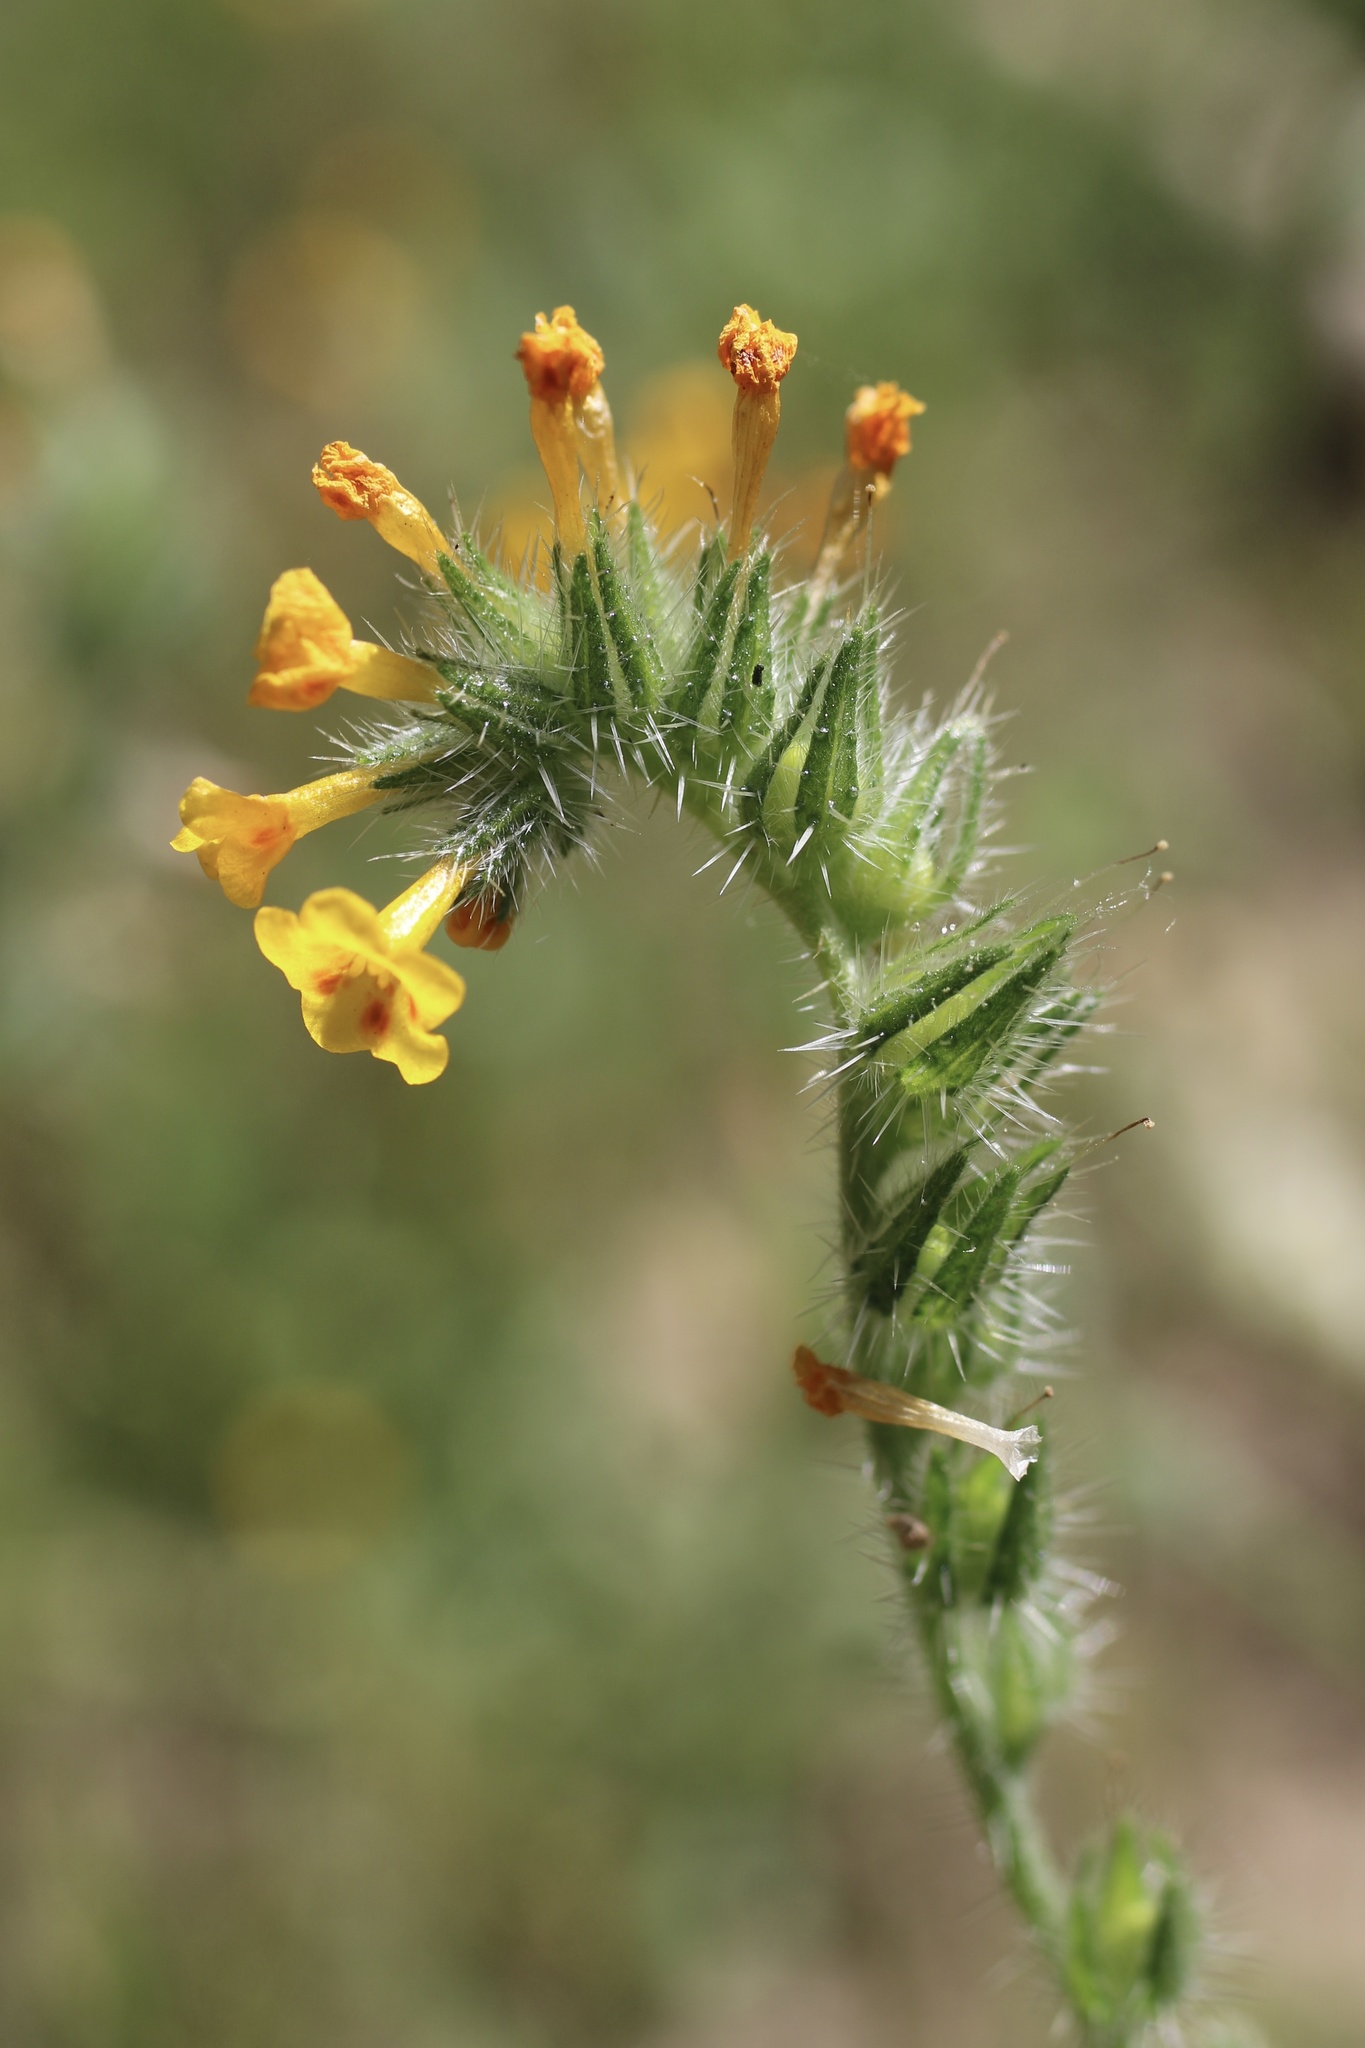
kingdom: Plantae
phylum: Tracheophyta
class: Magnoliopsida
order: Boraginales
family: Boraginaceae
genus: Amsinckia
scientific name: Amsinckia menziesii
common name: Menzies' fiddleneck
